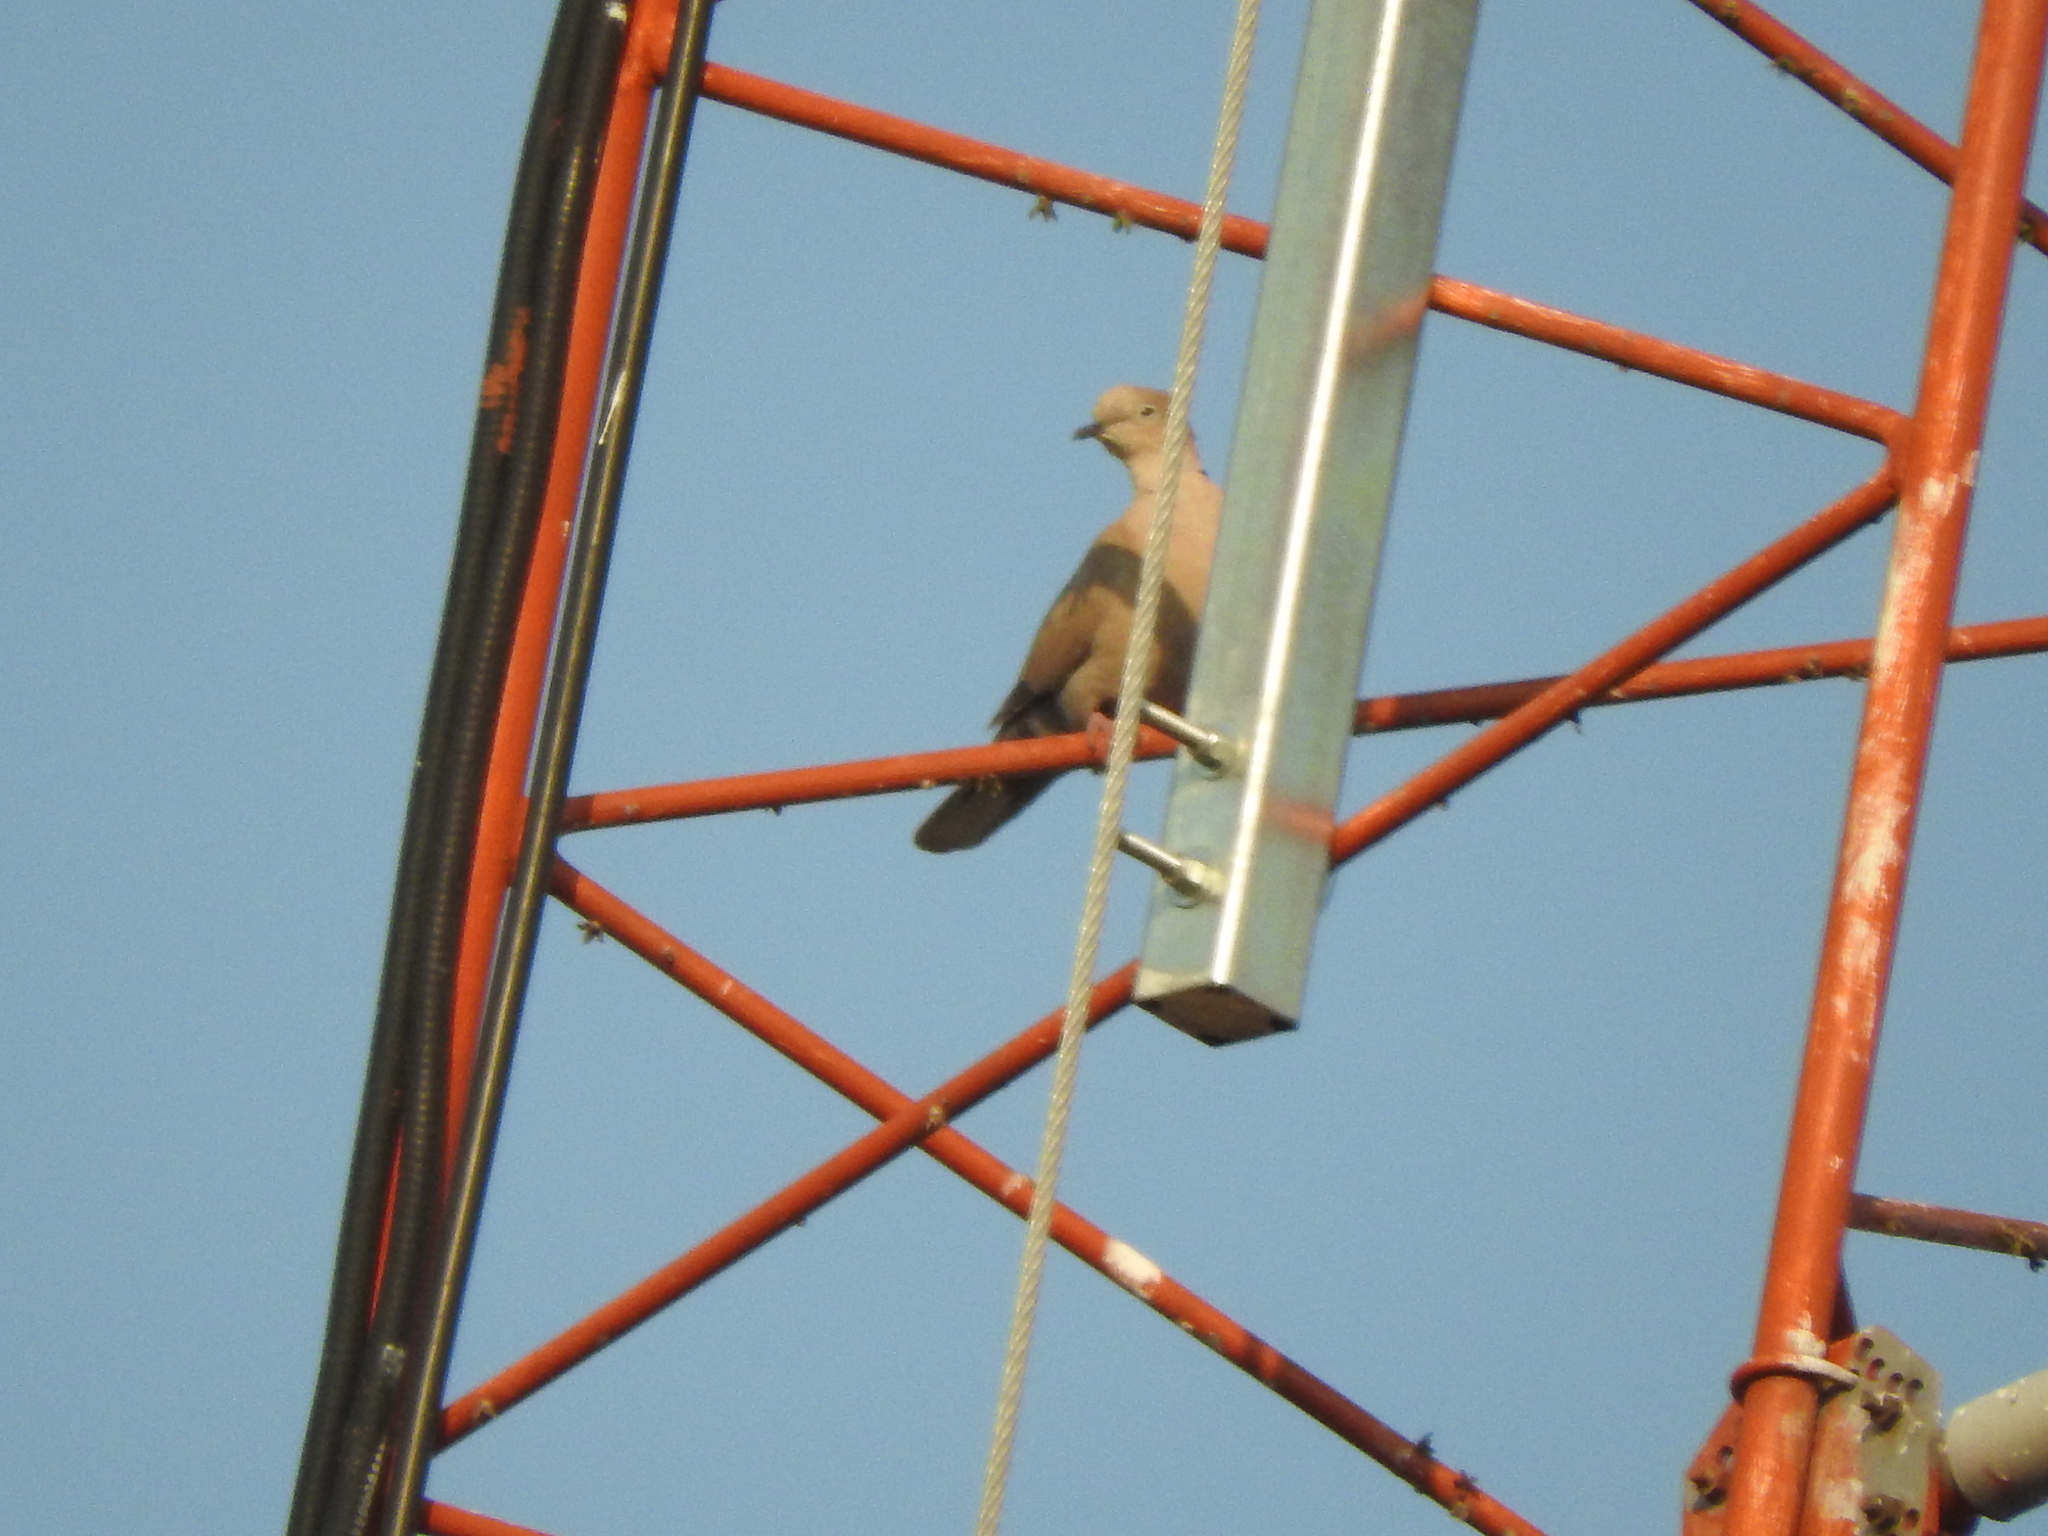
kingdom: Animalia
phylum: Chordata
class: Aves
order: Columbiformes
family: Columbidae
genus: Streptopelia
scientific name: Streptopelia decaocto
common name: Eurasian collared dove
